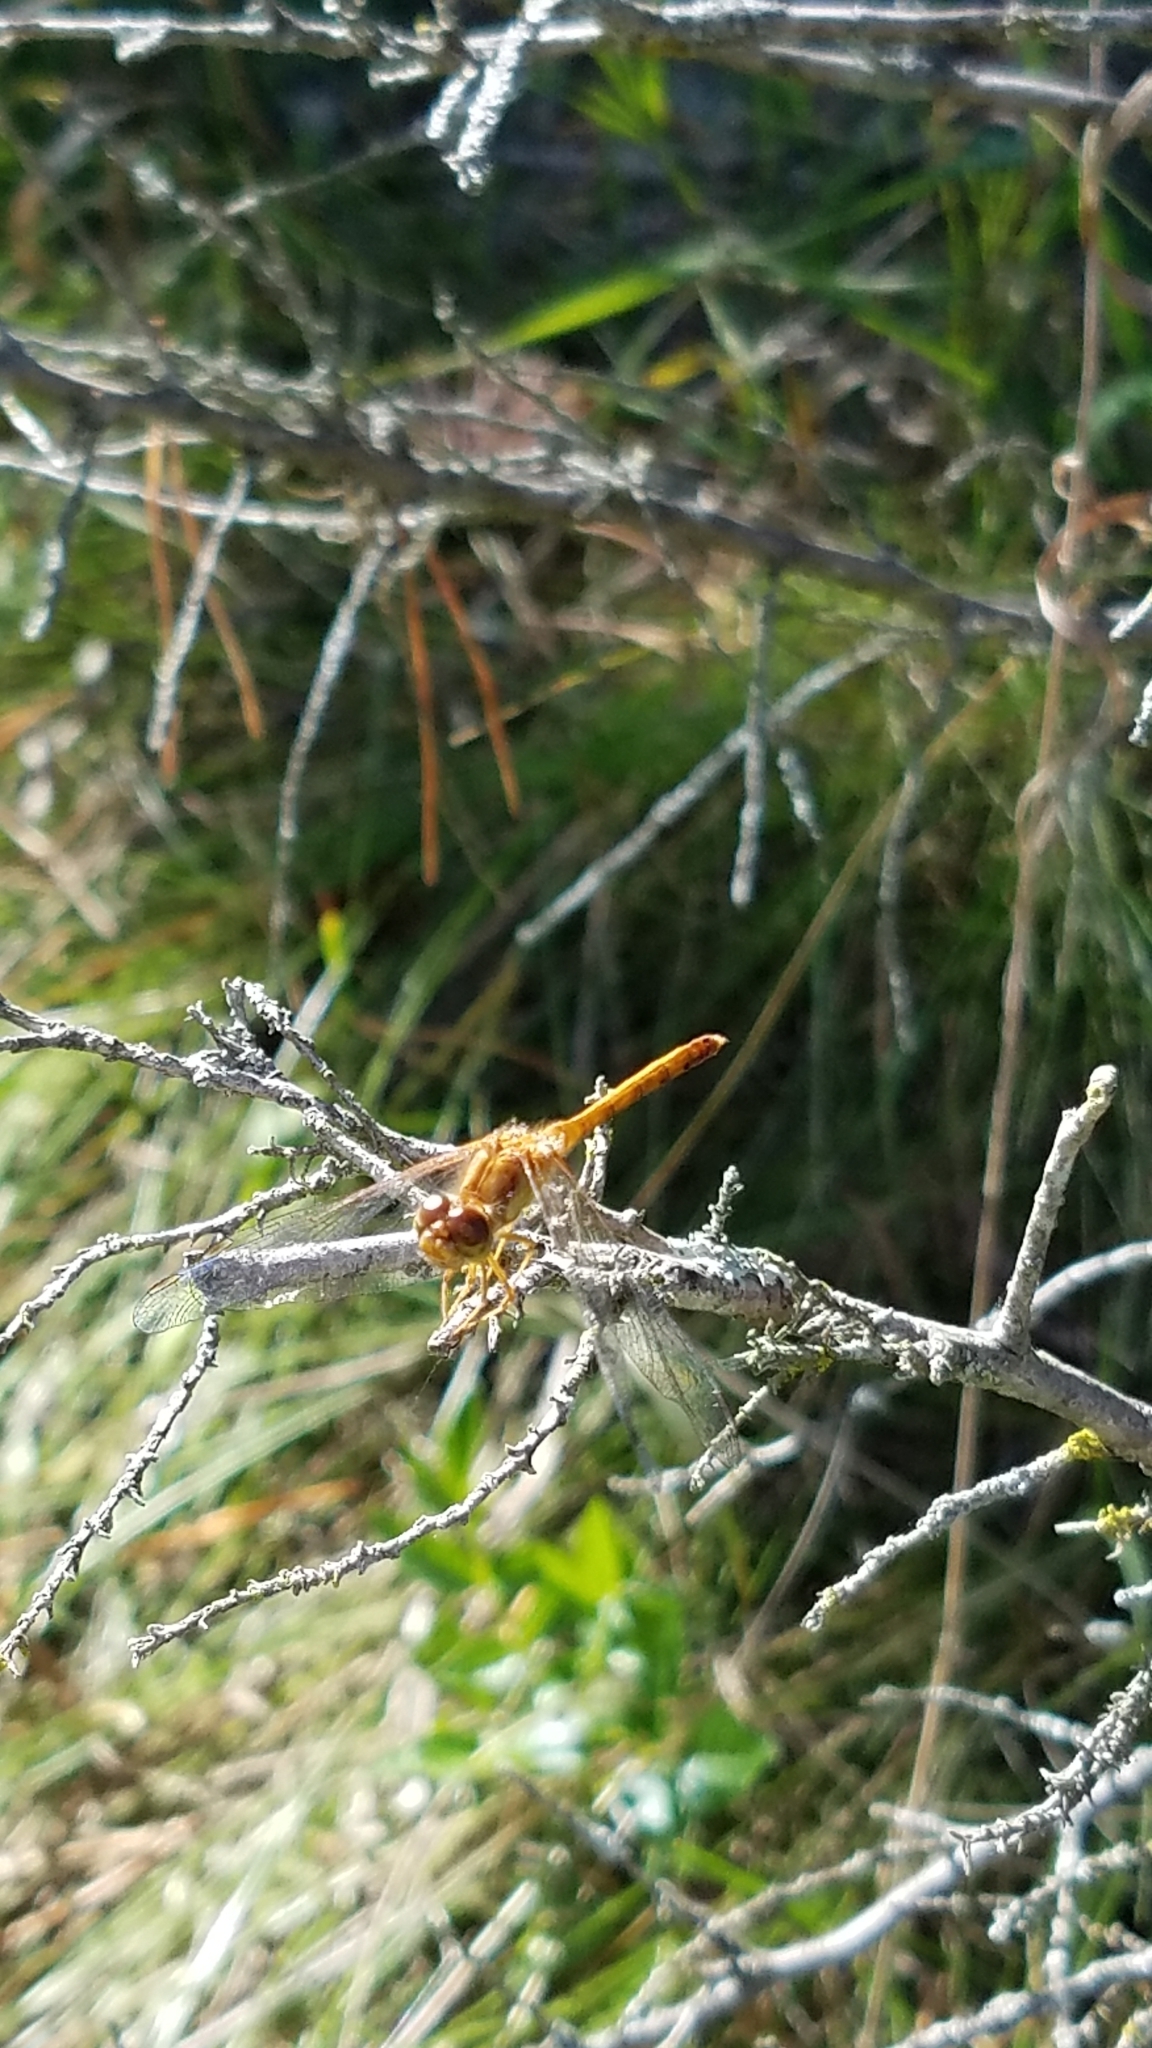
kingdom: Animalia
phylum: Arthropoda
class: Insecta
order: Odonata
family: Libellulidae
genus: Sympetrum
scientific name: Sympetrum vicinum
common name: Autumn meadowhawk
